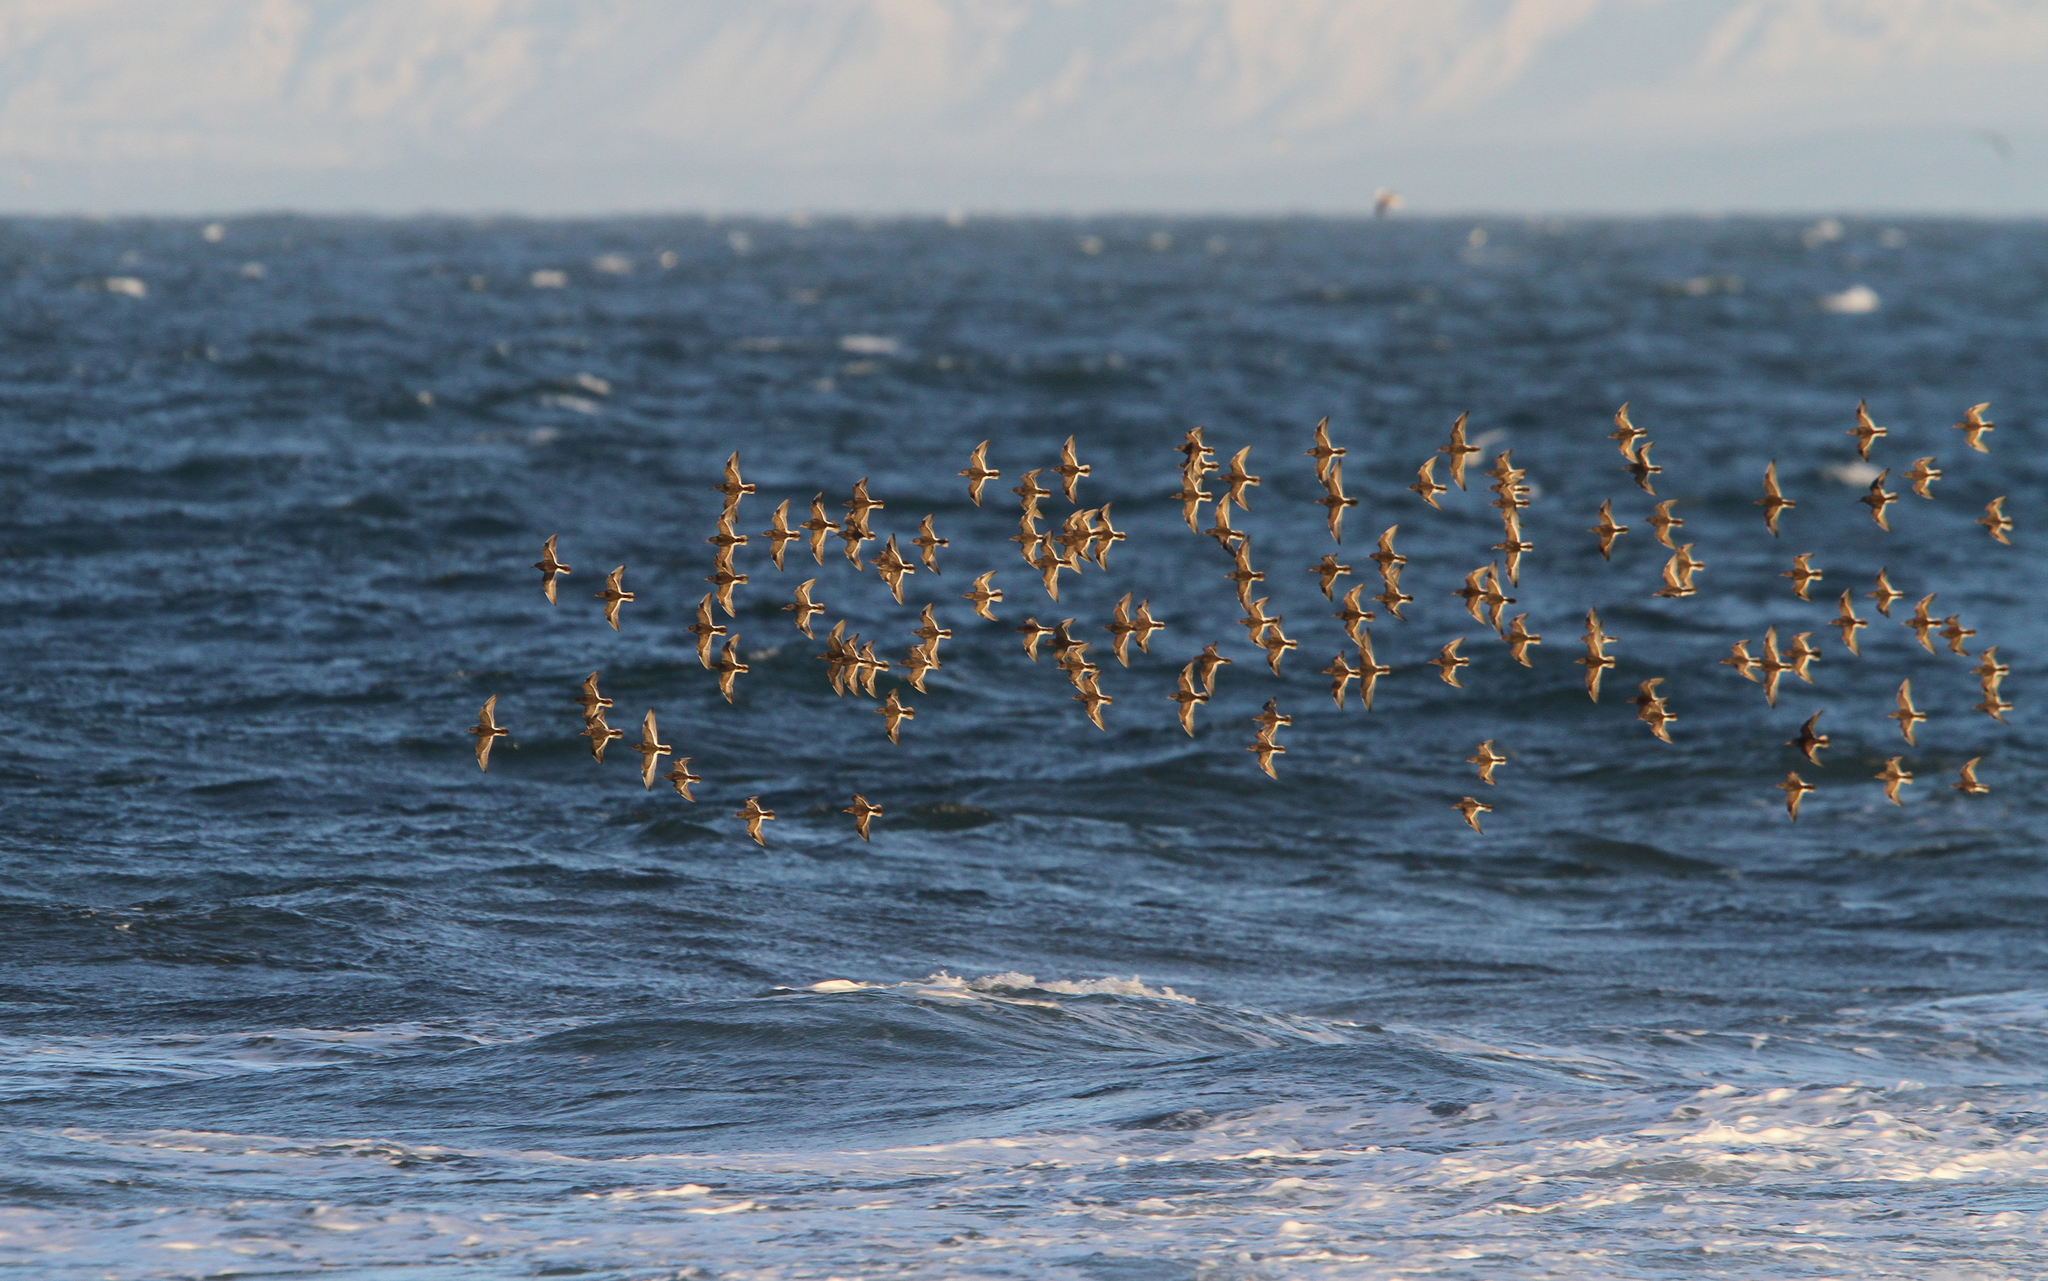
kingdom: Animalia
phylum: Chordata
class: Aves
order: Charadriiformes
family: Scolopacidae
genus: Calidris
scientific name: Calidris maritima
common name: Purple sandpiper
